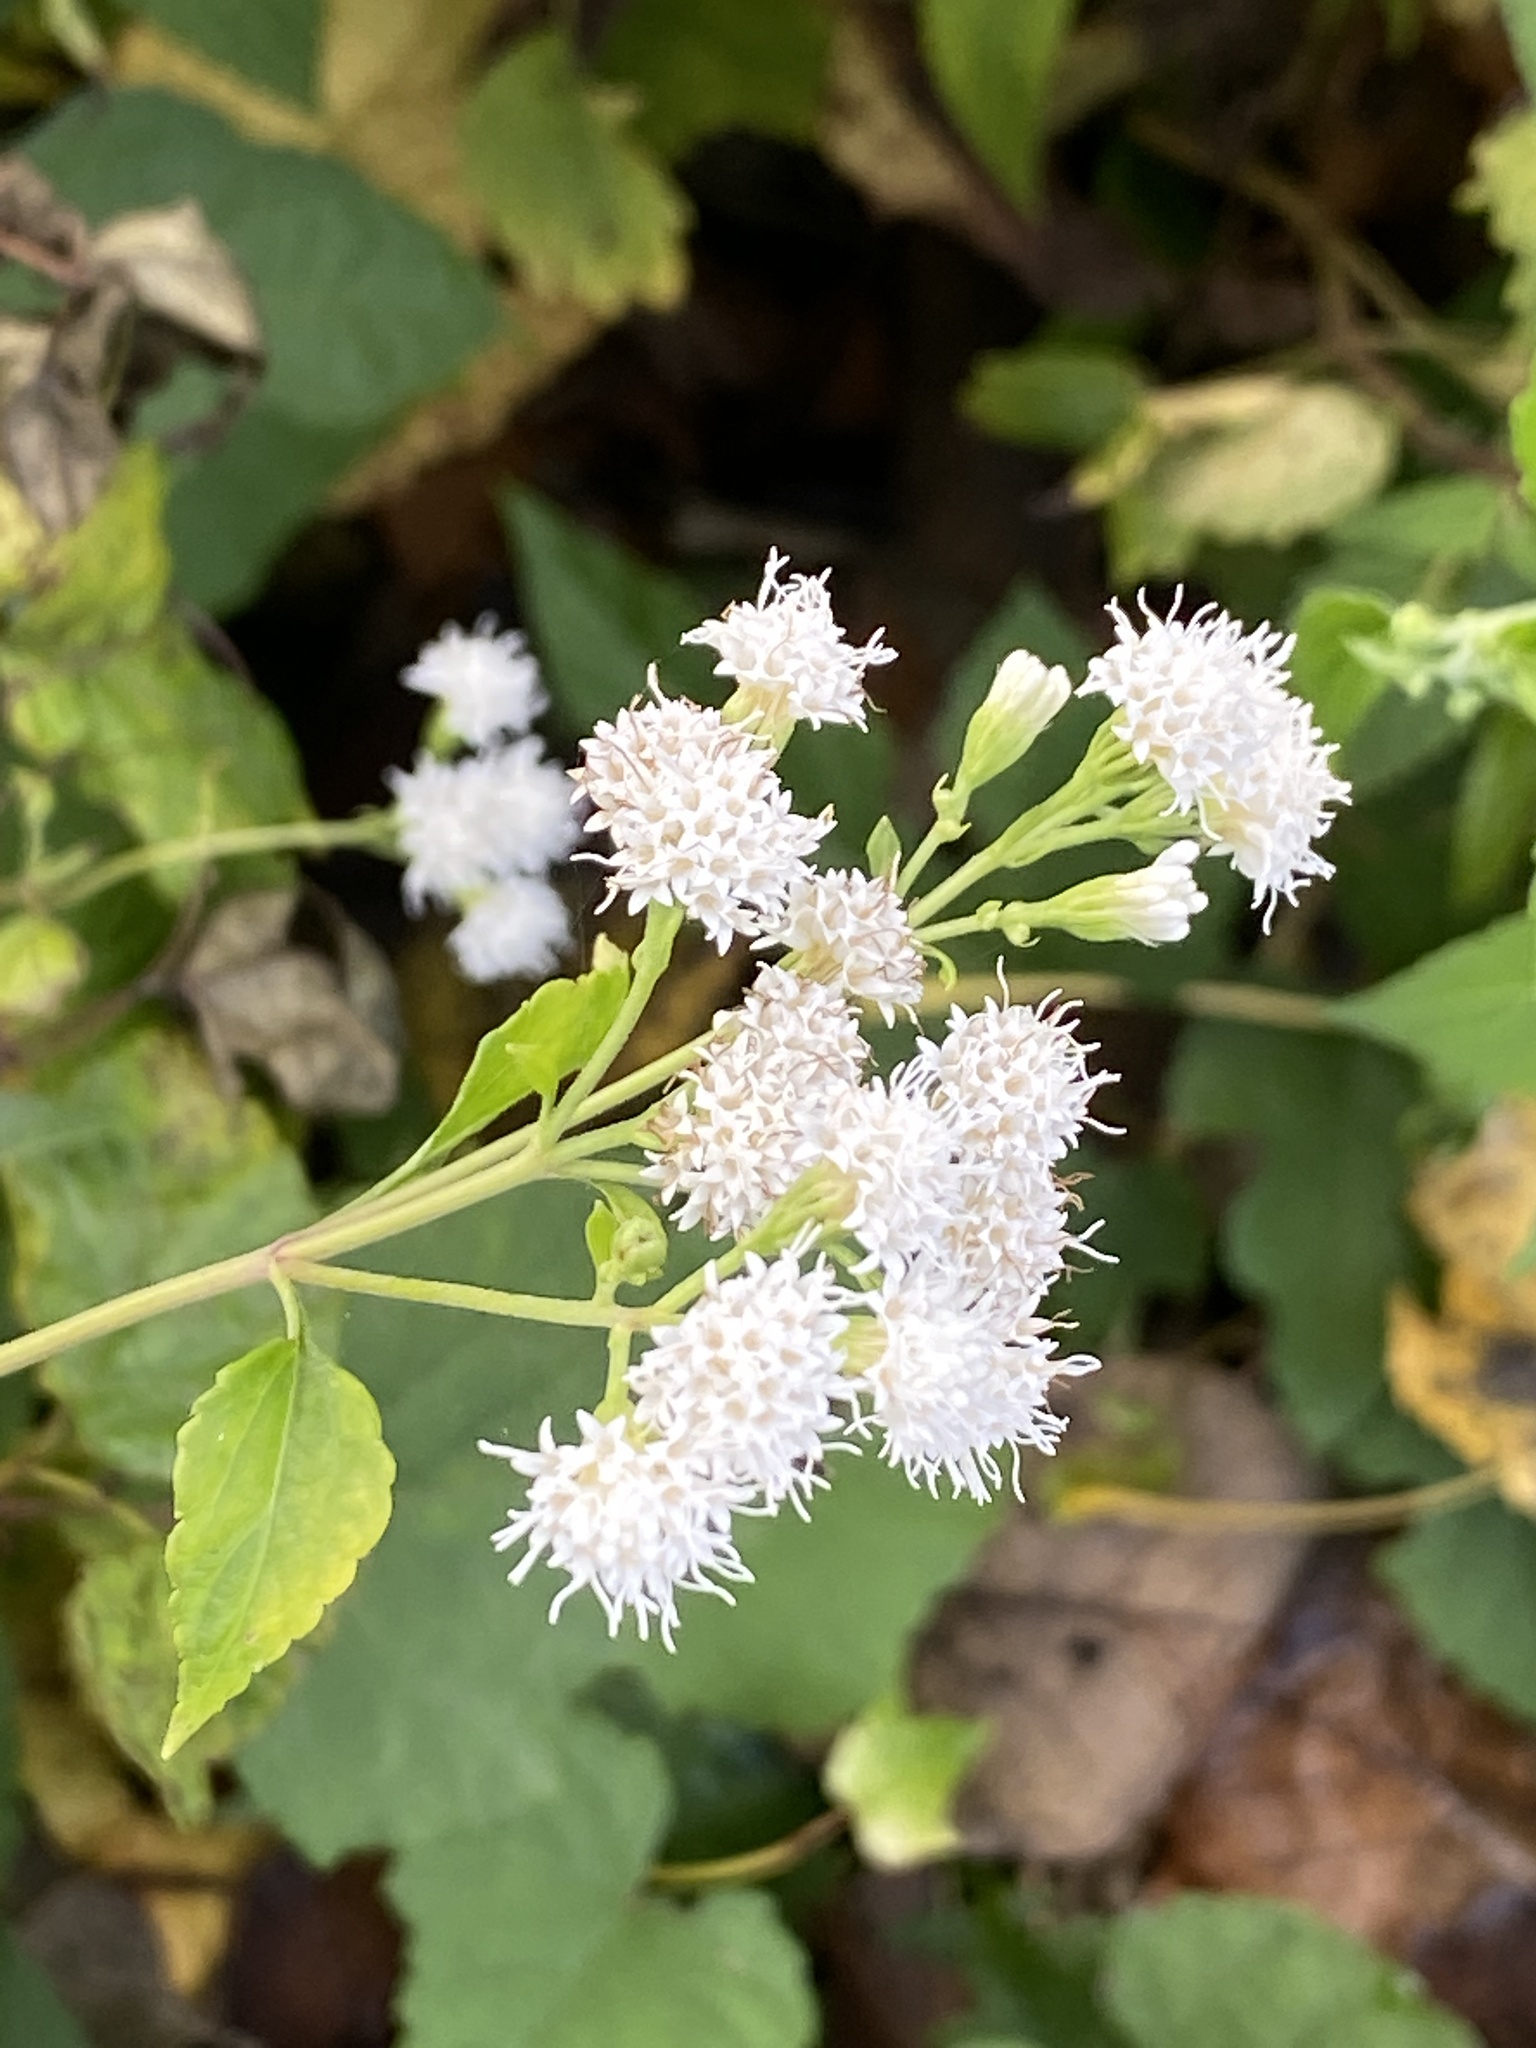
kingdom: Plantae
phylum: Tracheophyta
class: Magnoliopsida
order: Asterales
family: Asteraceae
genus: Ageratina
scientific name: Ageratina altissima
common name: White snakeroot
